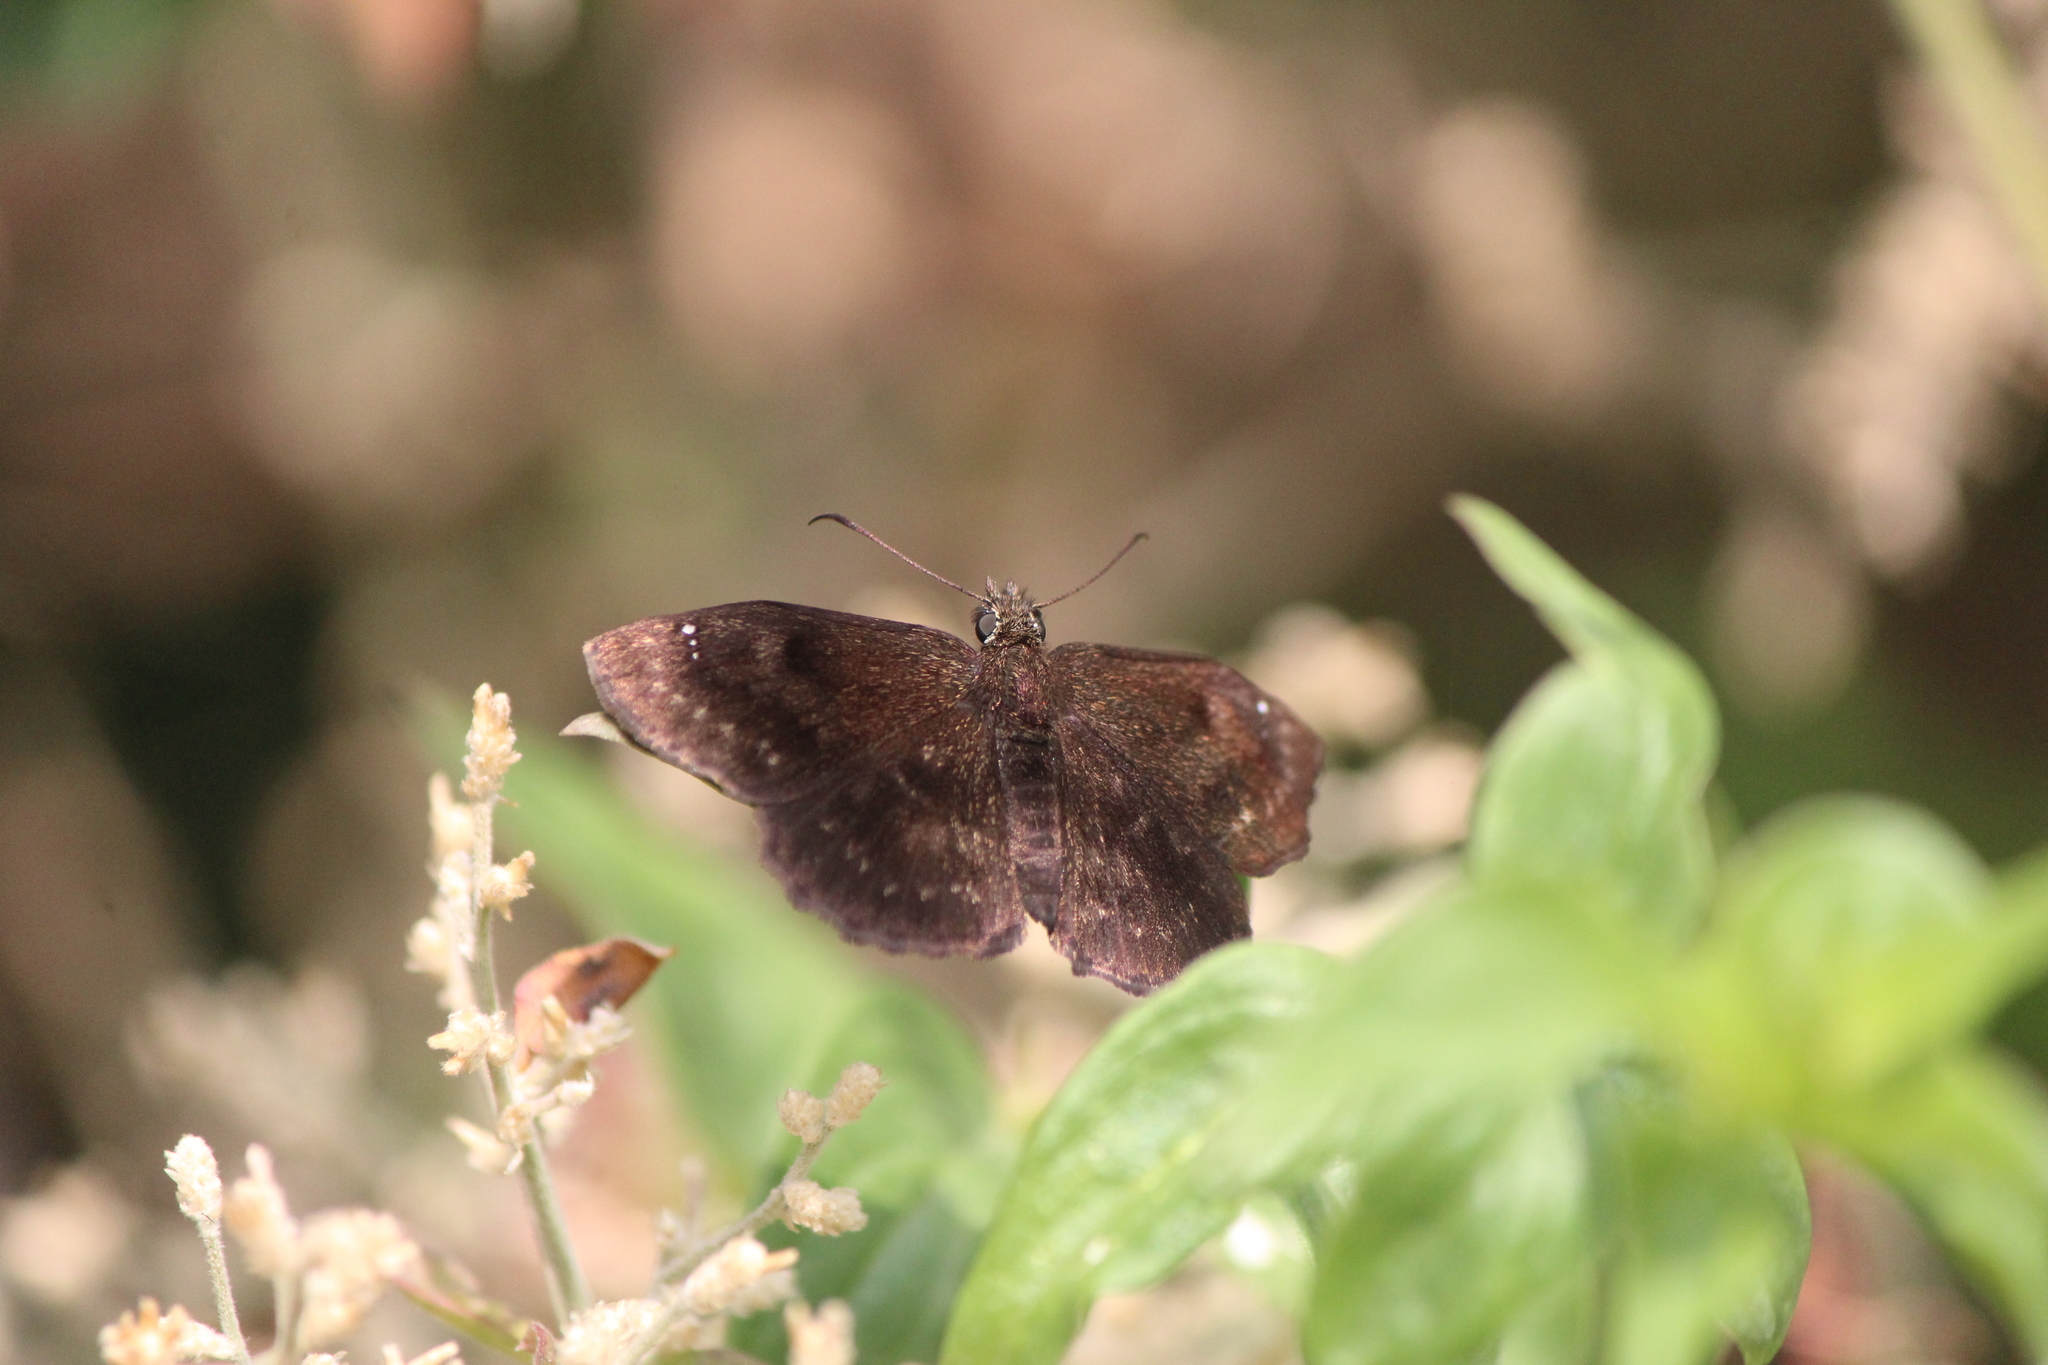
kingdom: Animalia
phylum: Arthropoda
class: Insecta
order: Lepidoptera
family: Hesperiidae
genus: Staphylus
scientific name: Staphylus vincula
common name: Mountain sootywing
